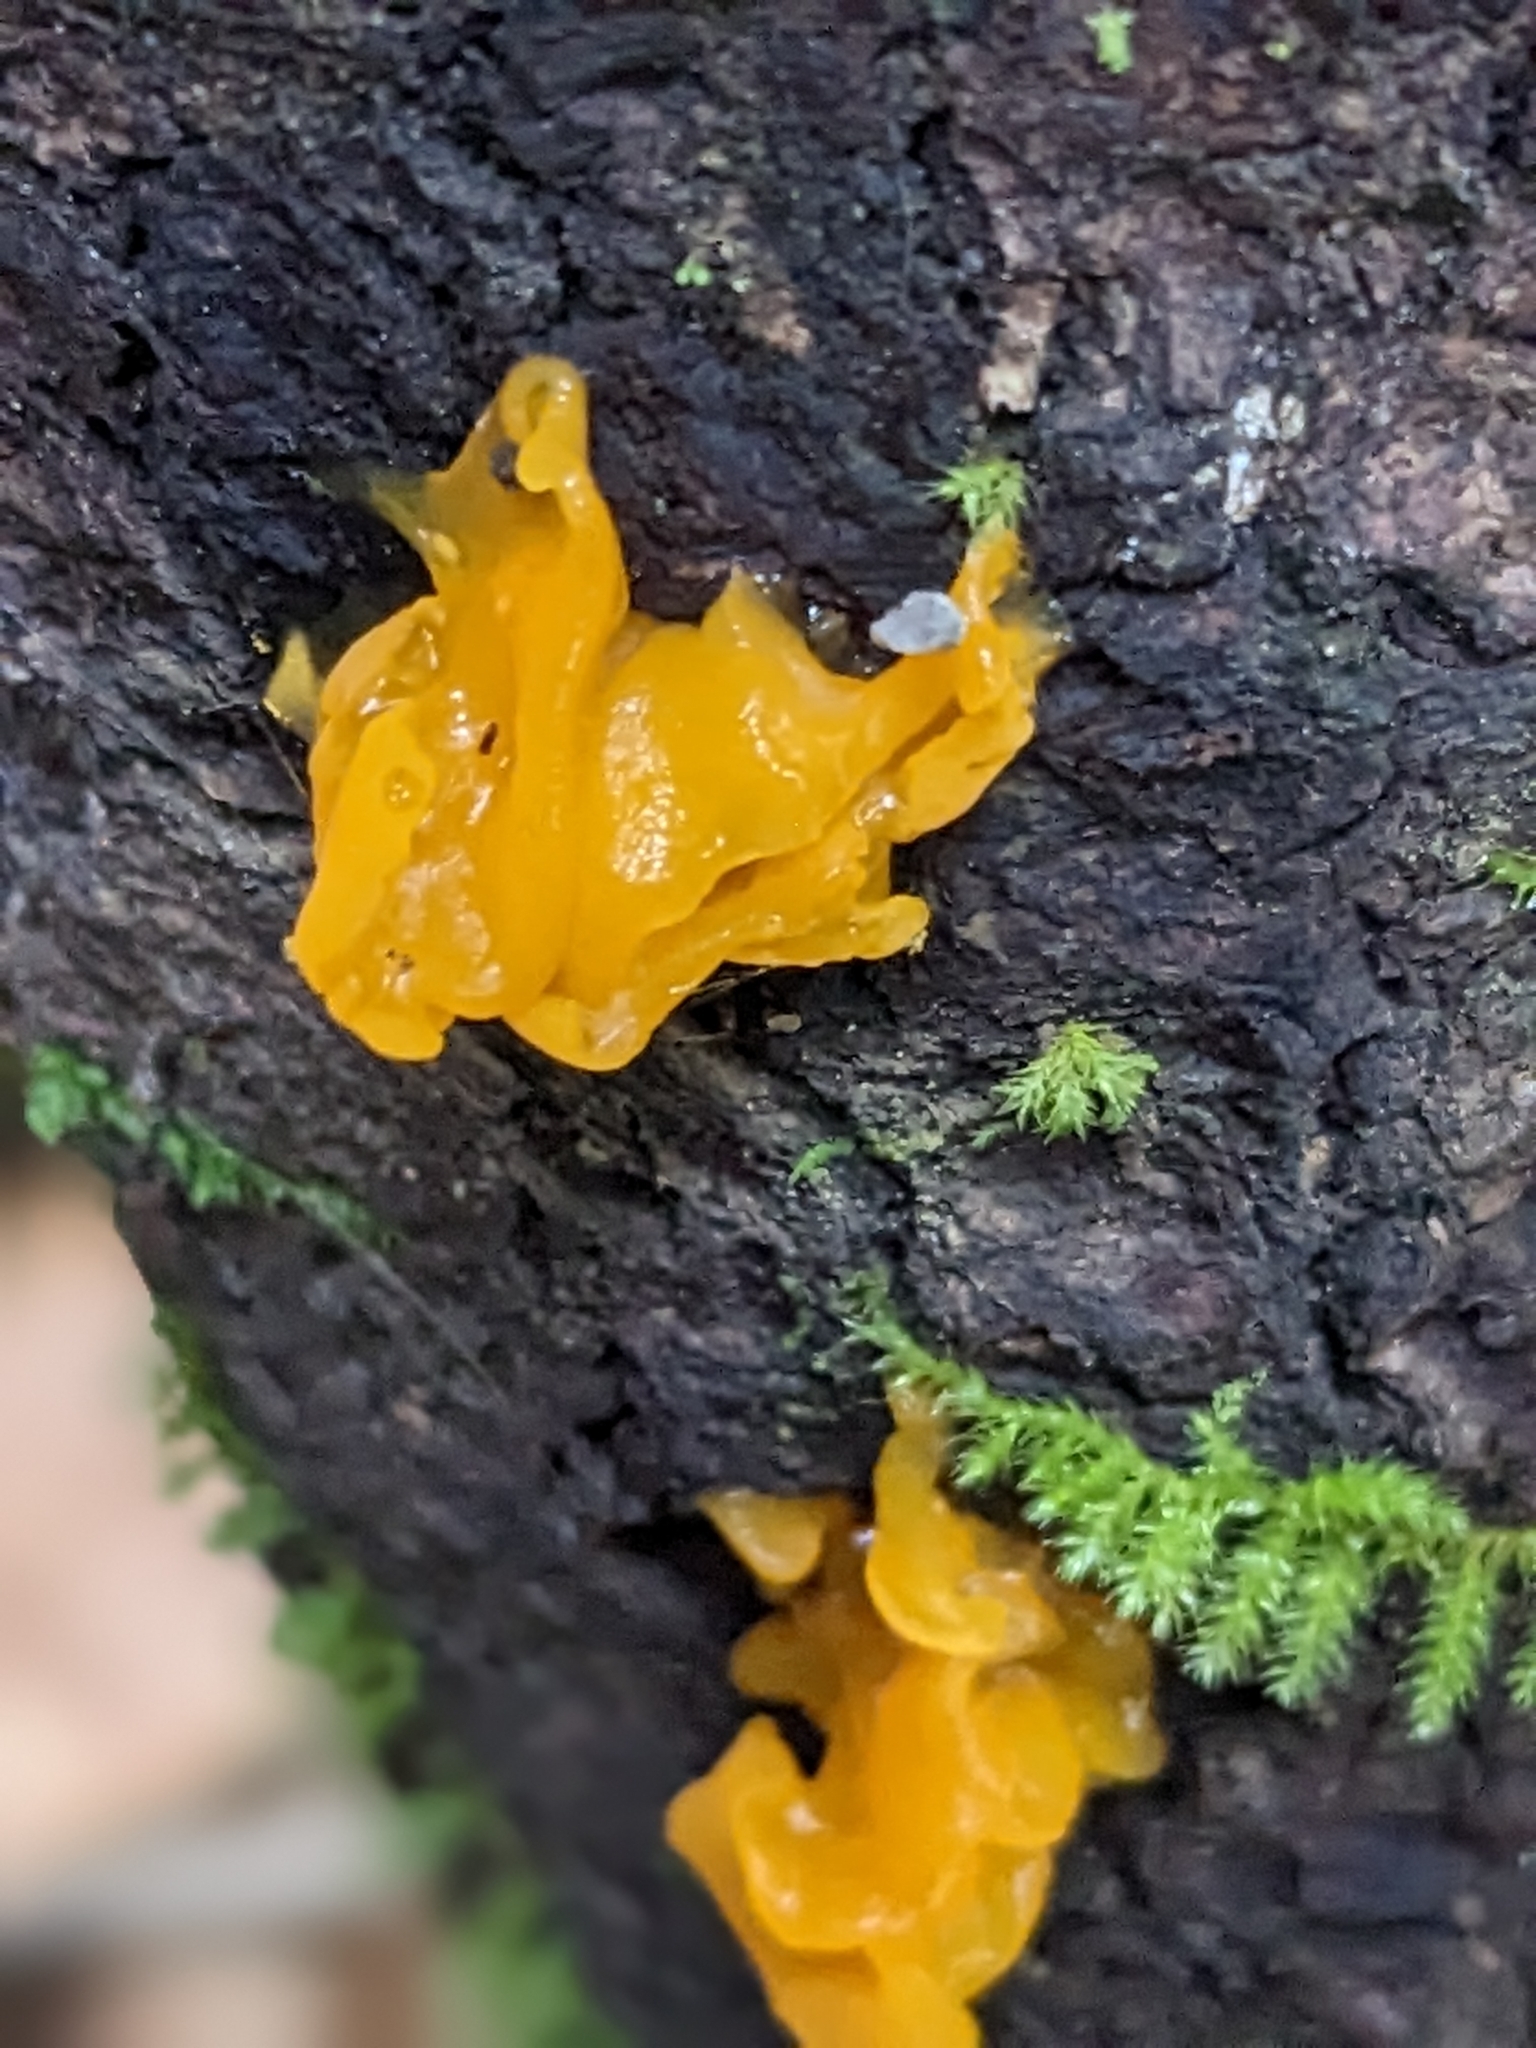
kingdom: Fungi
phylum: Basidiomycota
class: Dacrymycetes
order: Dacrymycetales
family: Dacrymycetaceae
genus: Dacrymyces
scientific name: Dacrymyces chrysospermus
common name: Orange jelly spot
